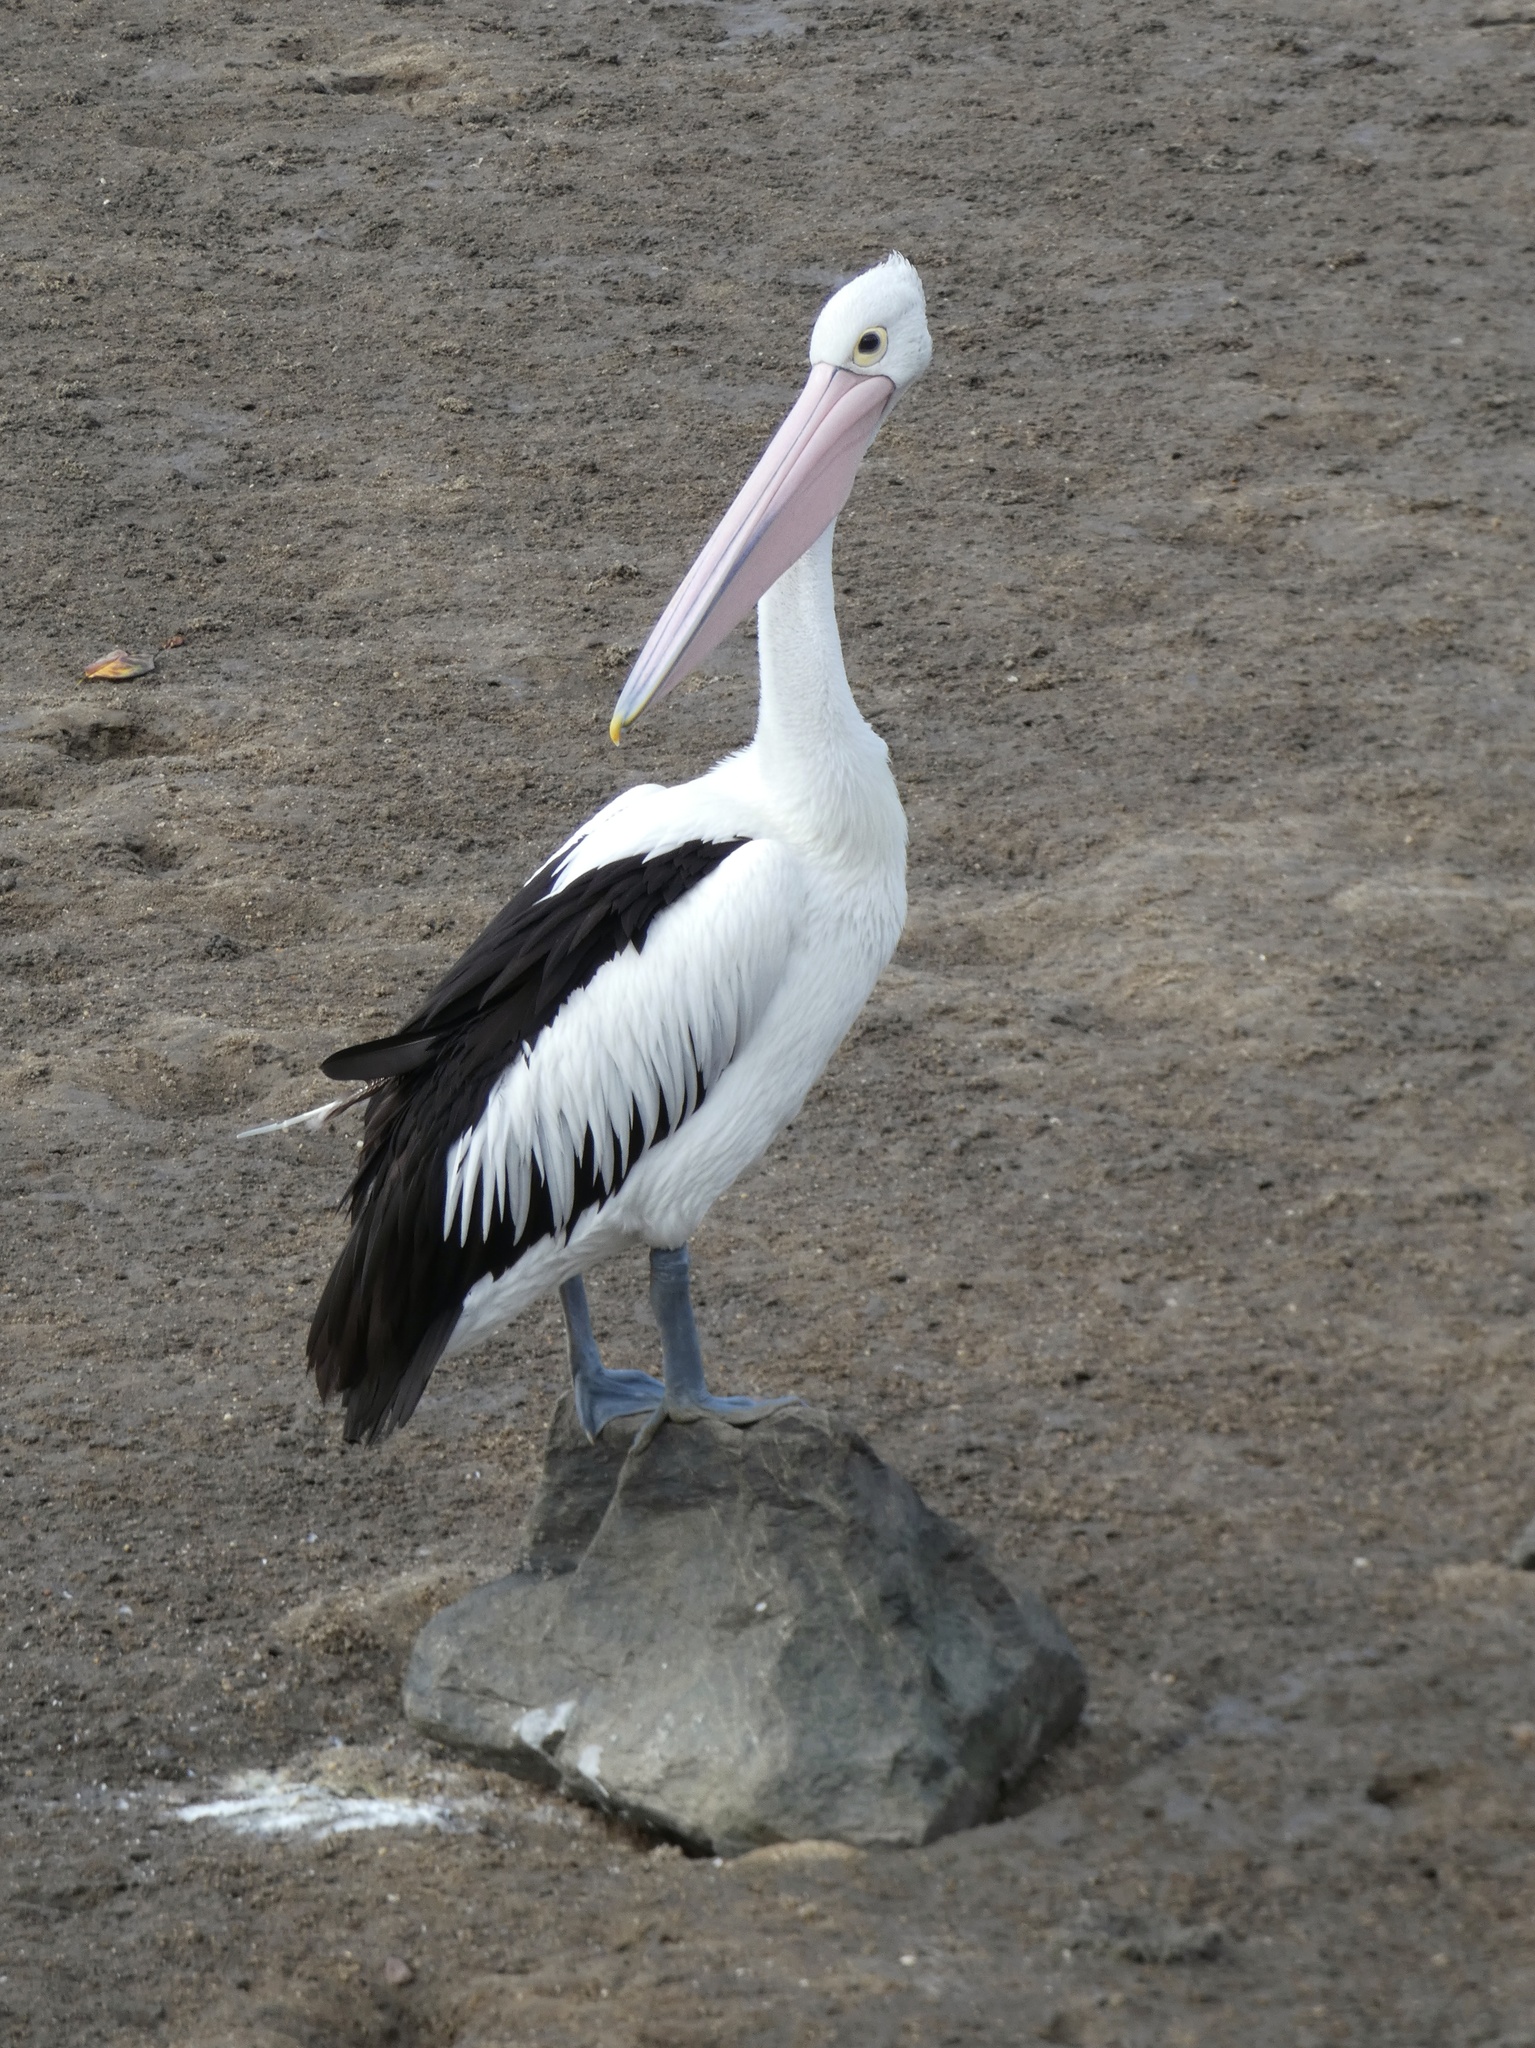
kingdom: Animalia
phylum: Chordata
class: Aves
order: Pelecaniformes
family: Pelecanidae
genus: Pelecanus
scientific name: Pelecanus conspicillatus
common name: Australian pelican
